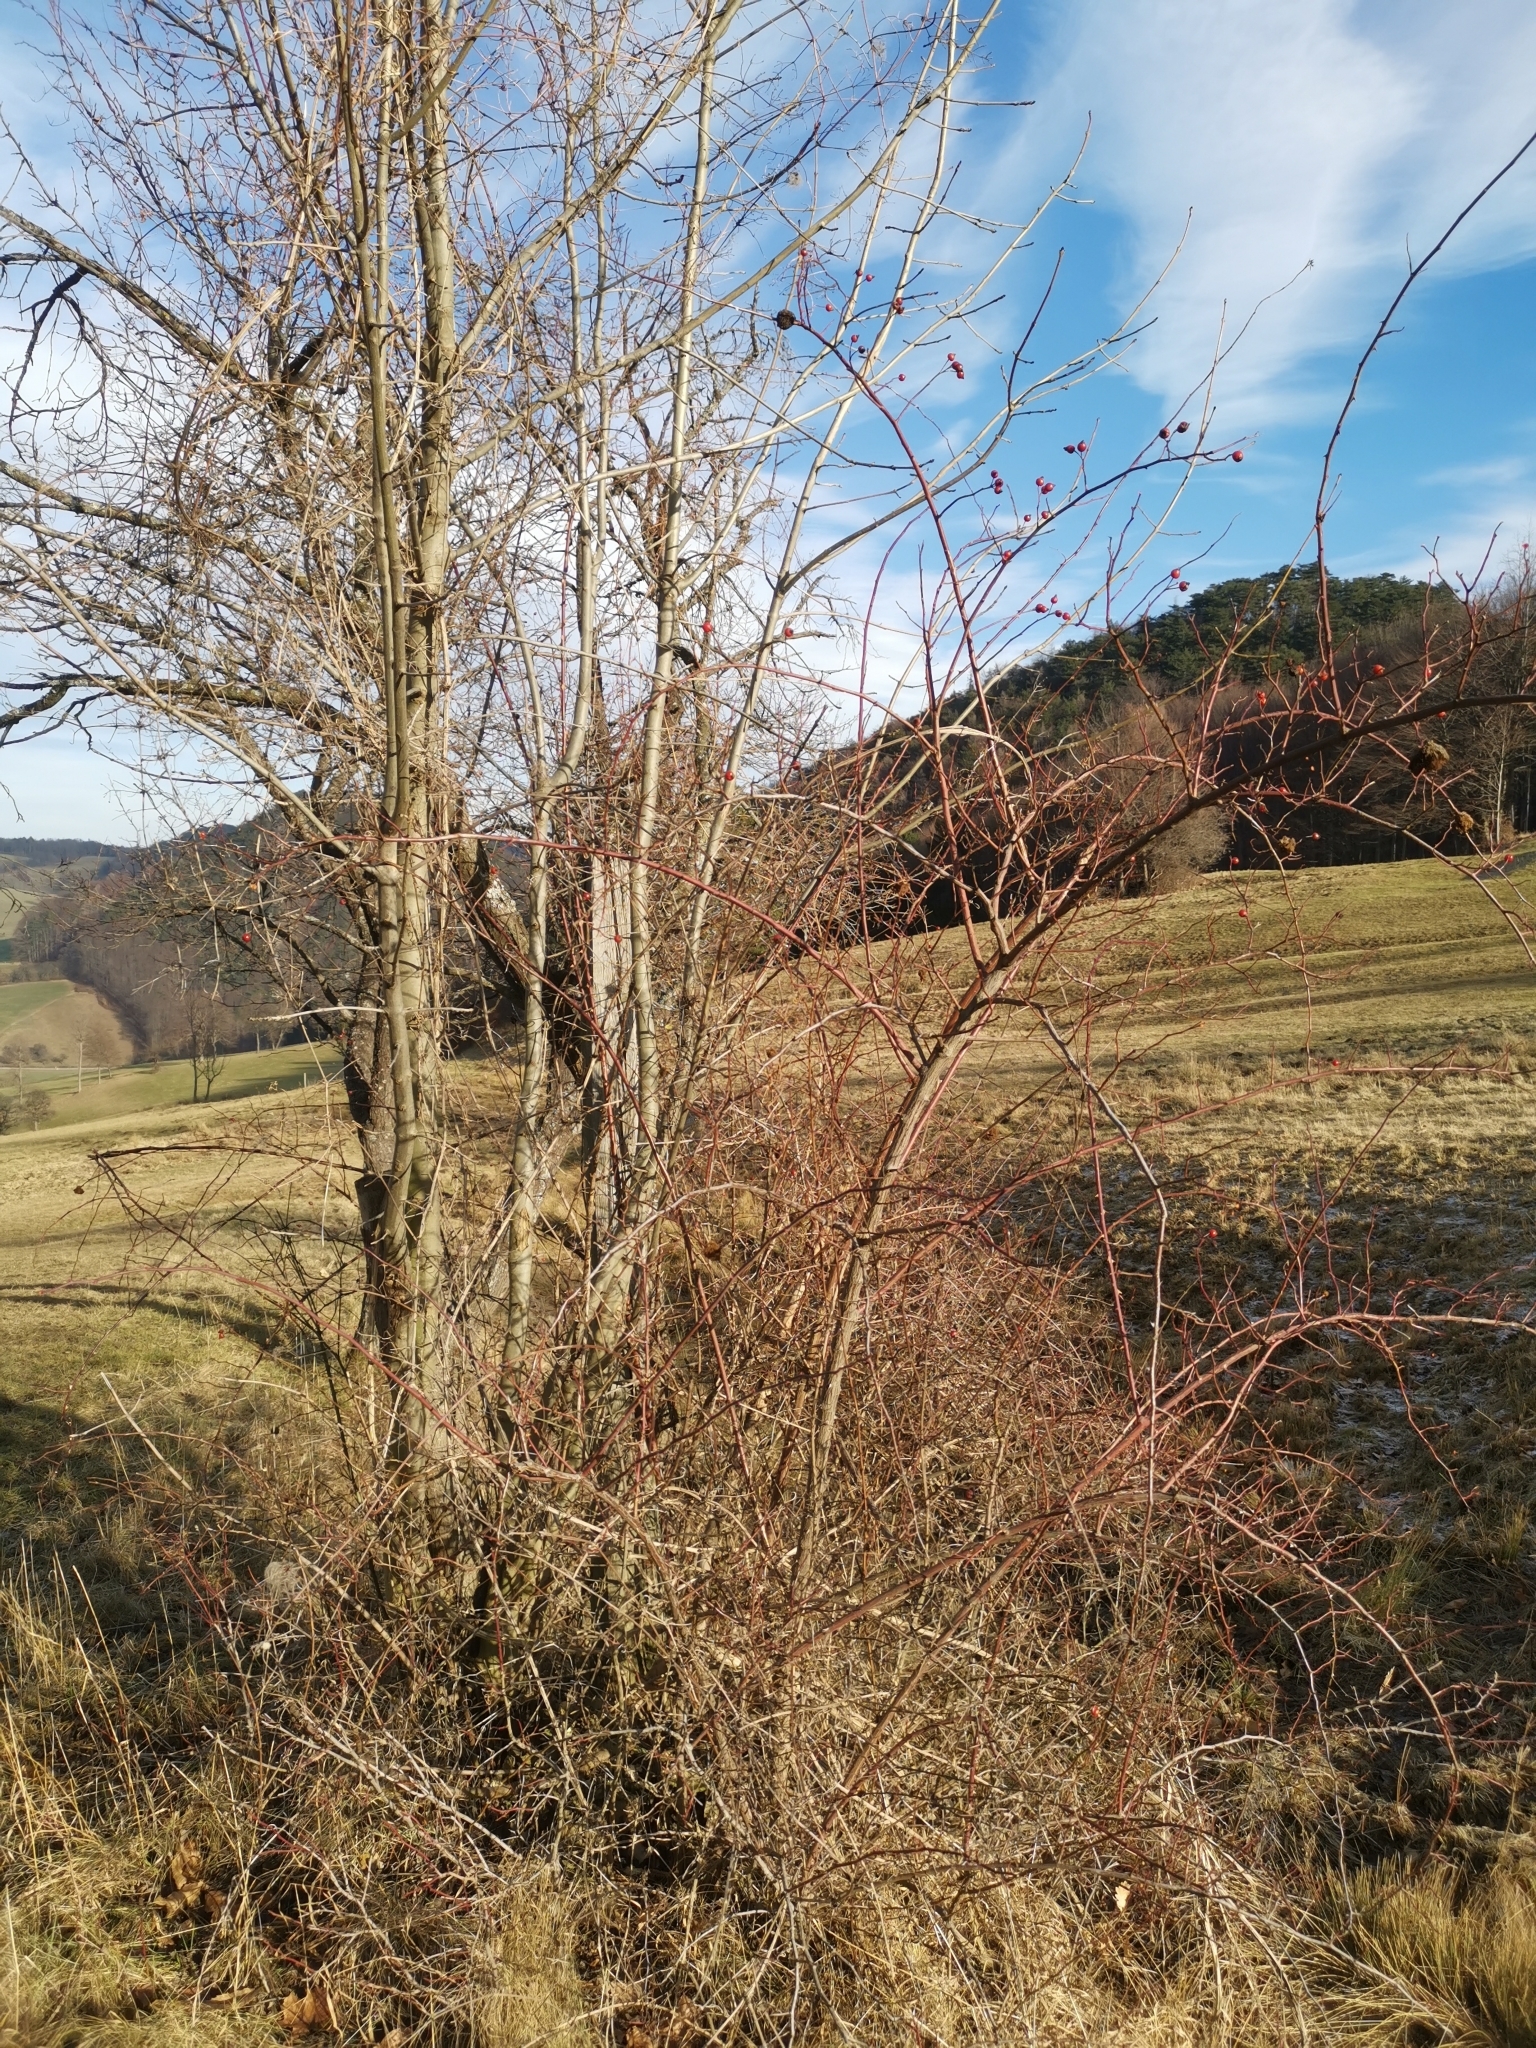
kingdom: Animalia
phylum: Arthropoda
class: Insecta
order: Hymenoptera
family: Cynipidae
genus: Diplolepis
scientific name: Diplolepis rosae
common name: Bedeguar gall
